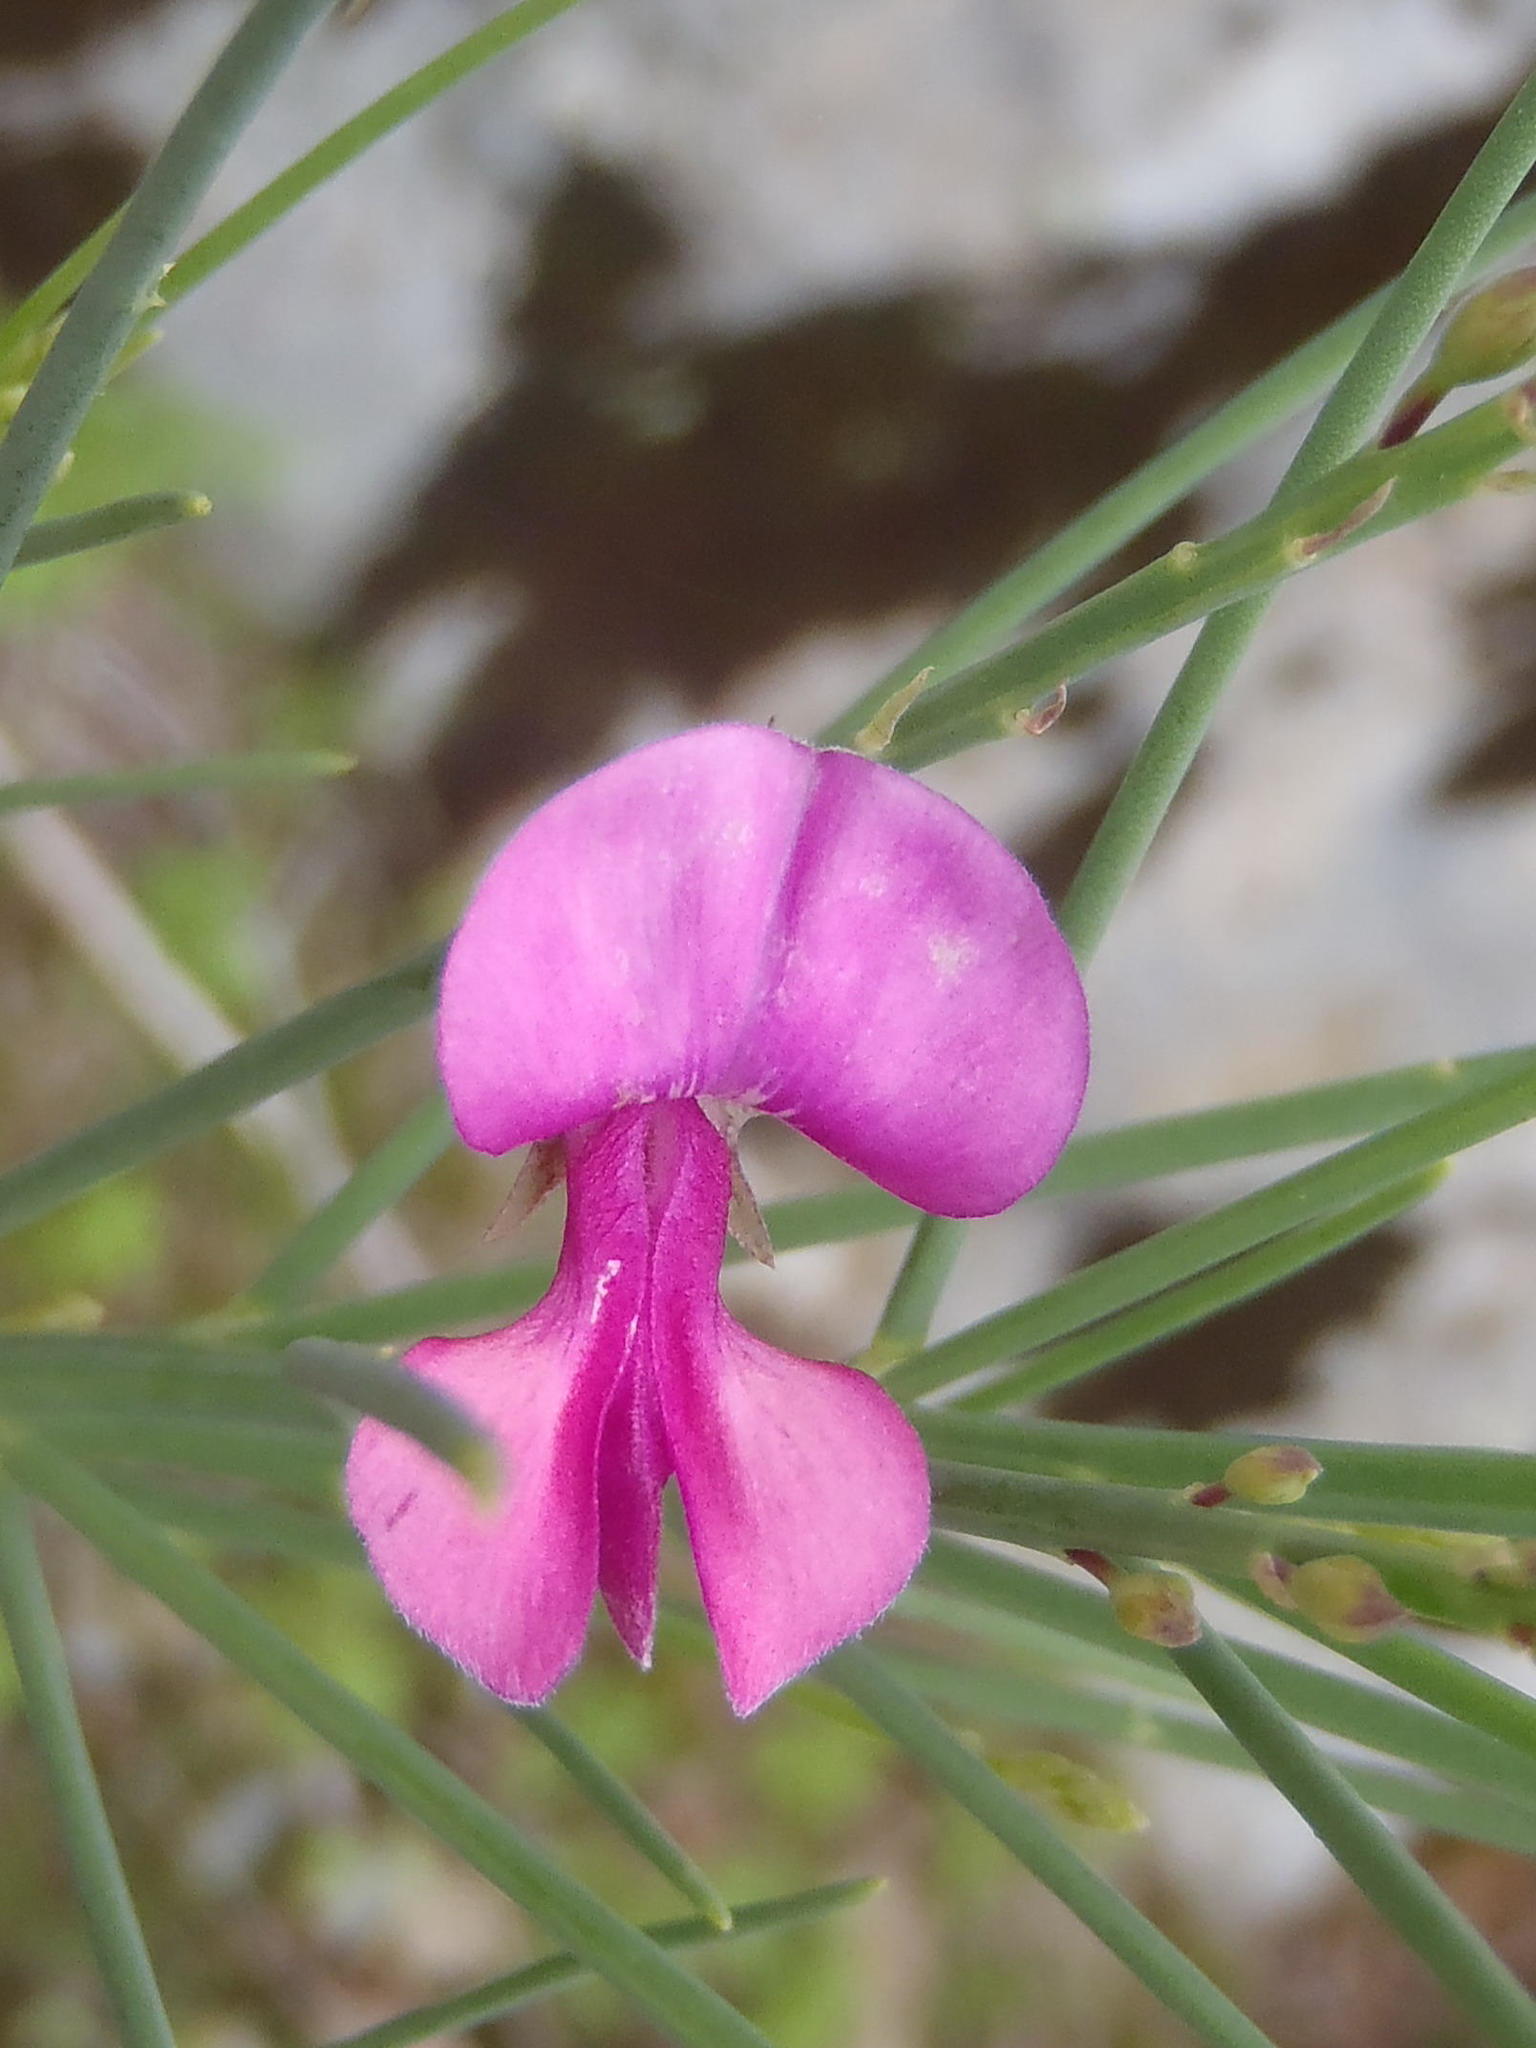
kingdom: Plantae
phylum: Tracheophyta
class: Magnoliopsida
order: Fabales
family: Fabaceae
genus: Indigofera
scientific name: Indigofera filifolia
